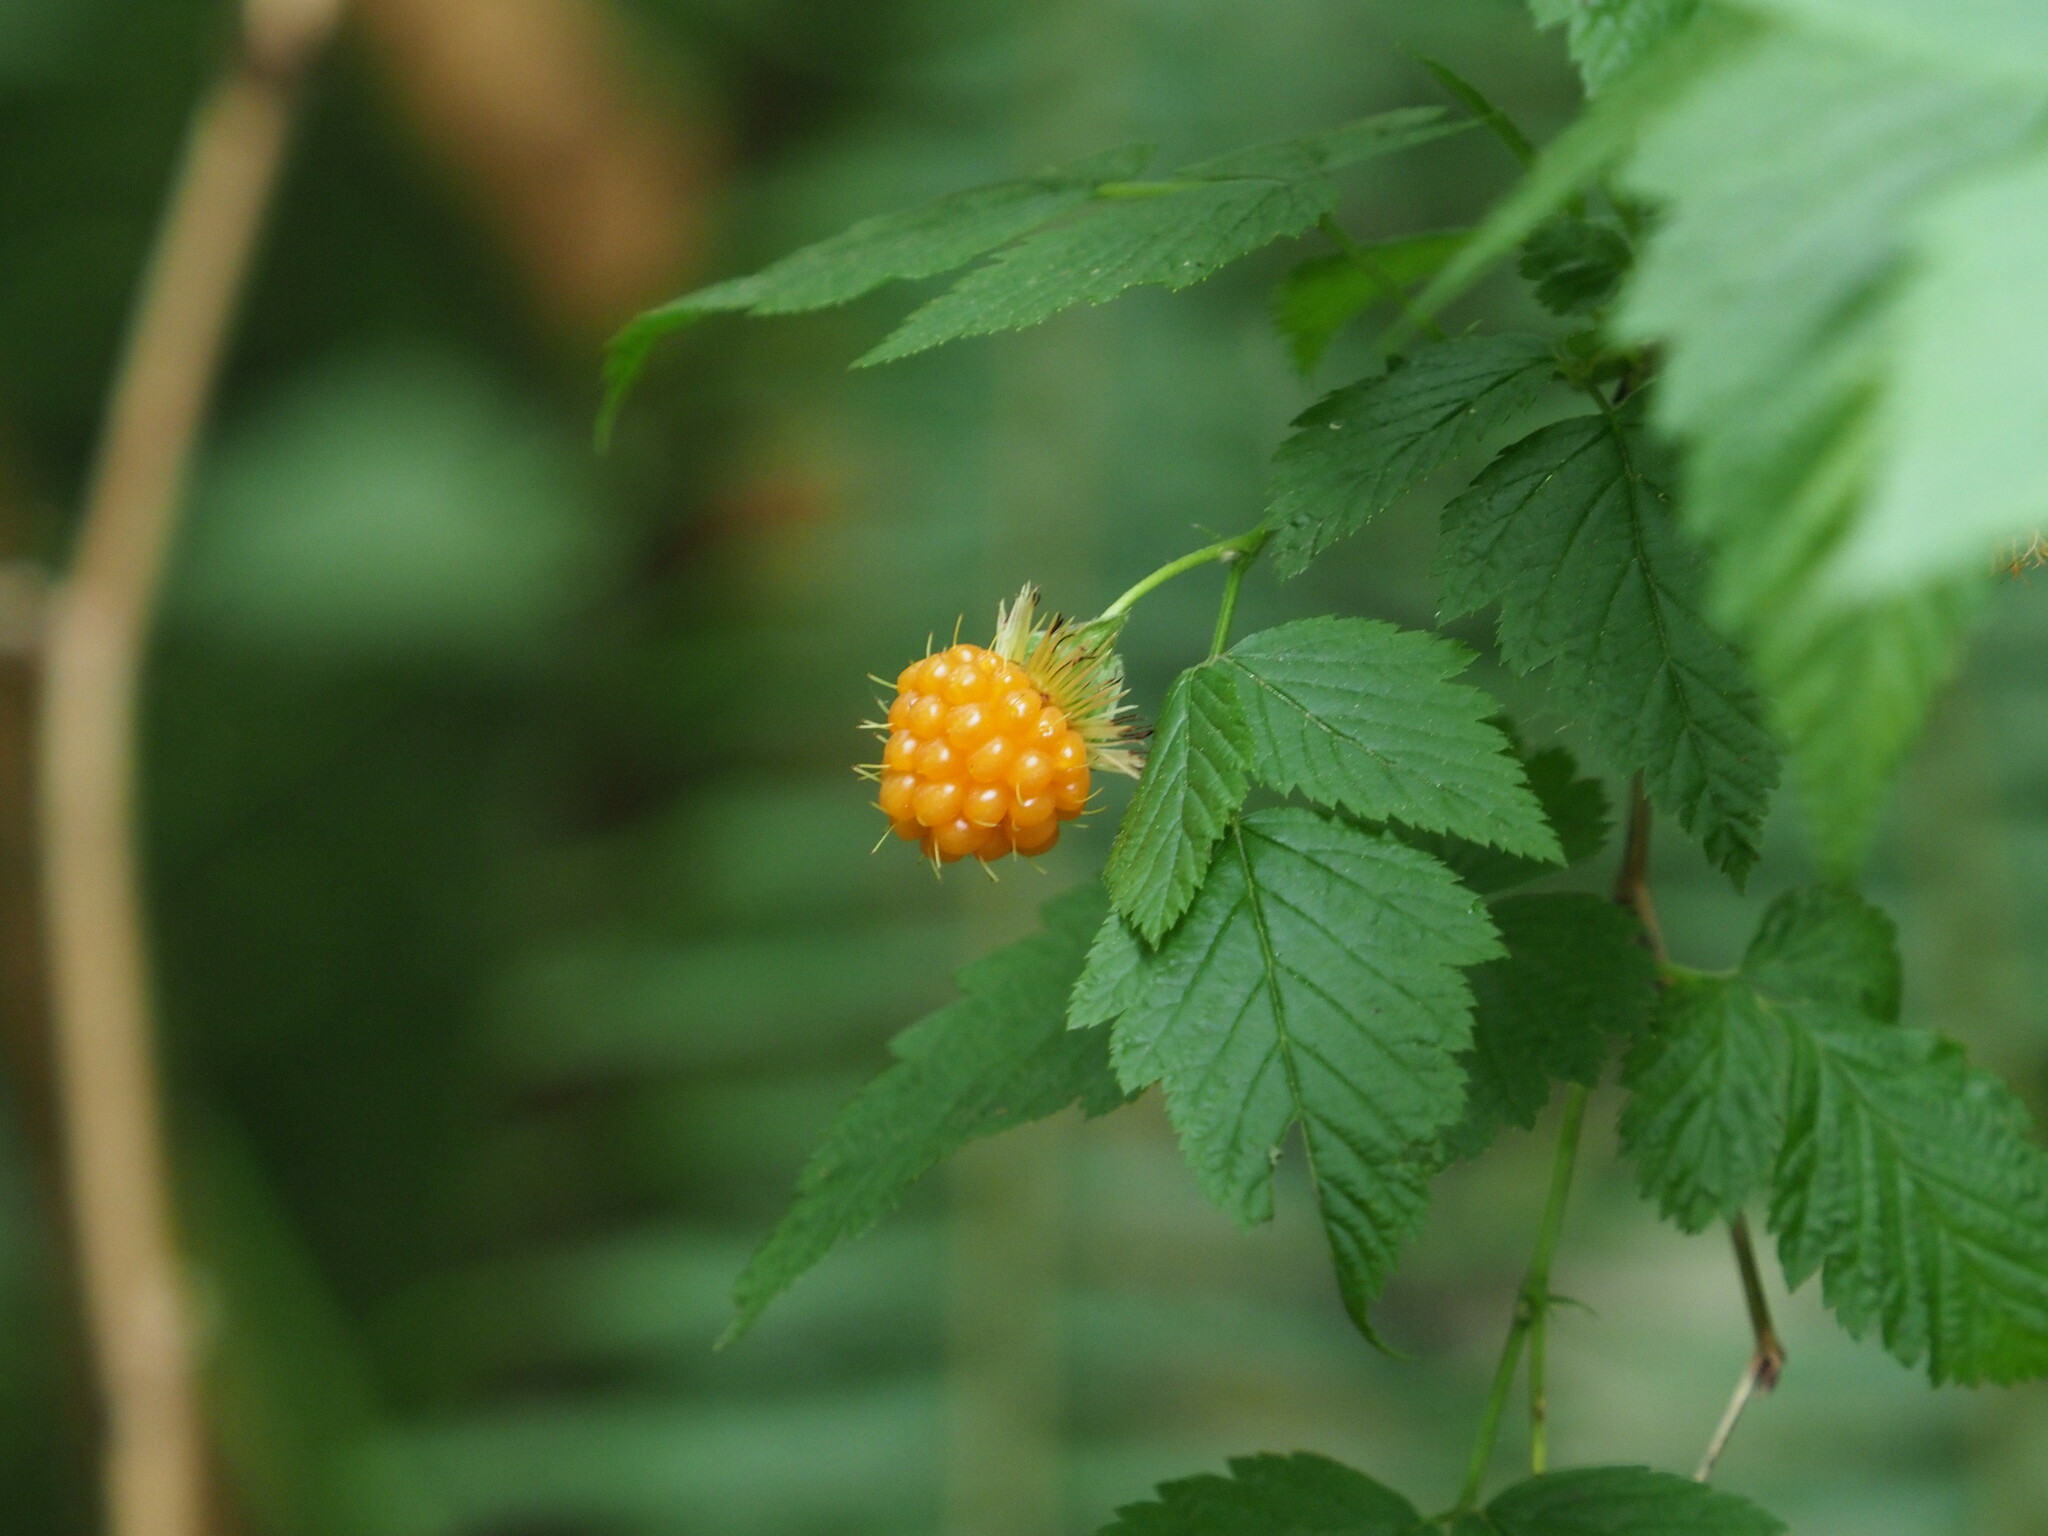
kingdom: Plantae
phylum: Tracheophyta
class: Magnoliopsida
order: Rosales
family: Rosaceae
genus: Rubus
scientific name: Rubus spectabilis
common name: Salmonberry
